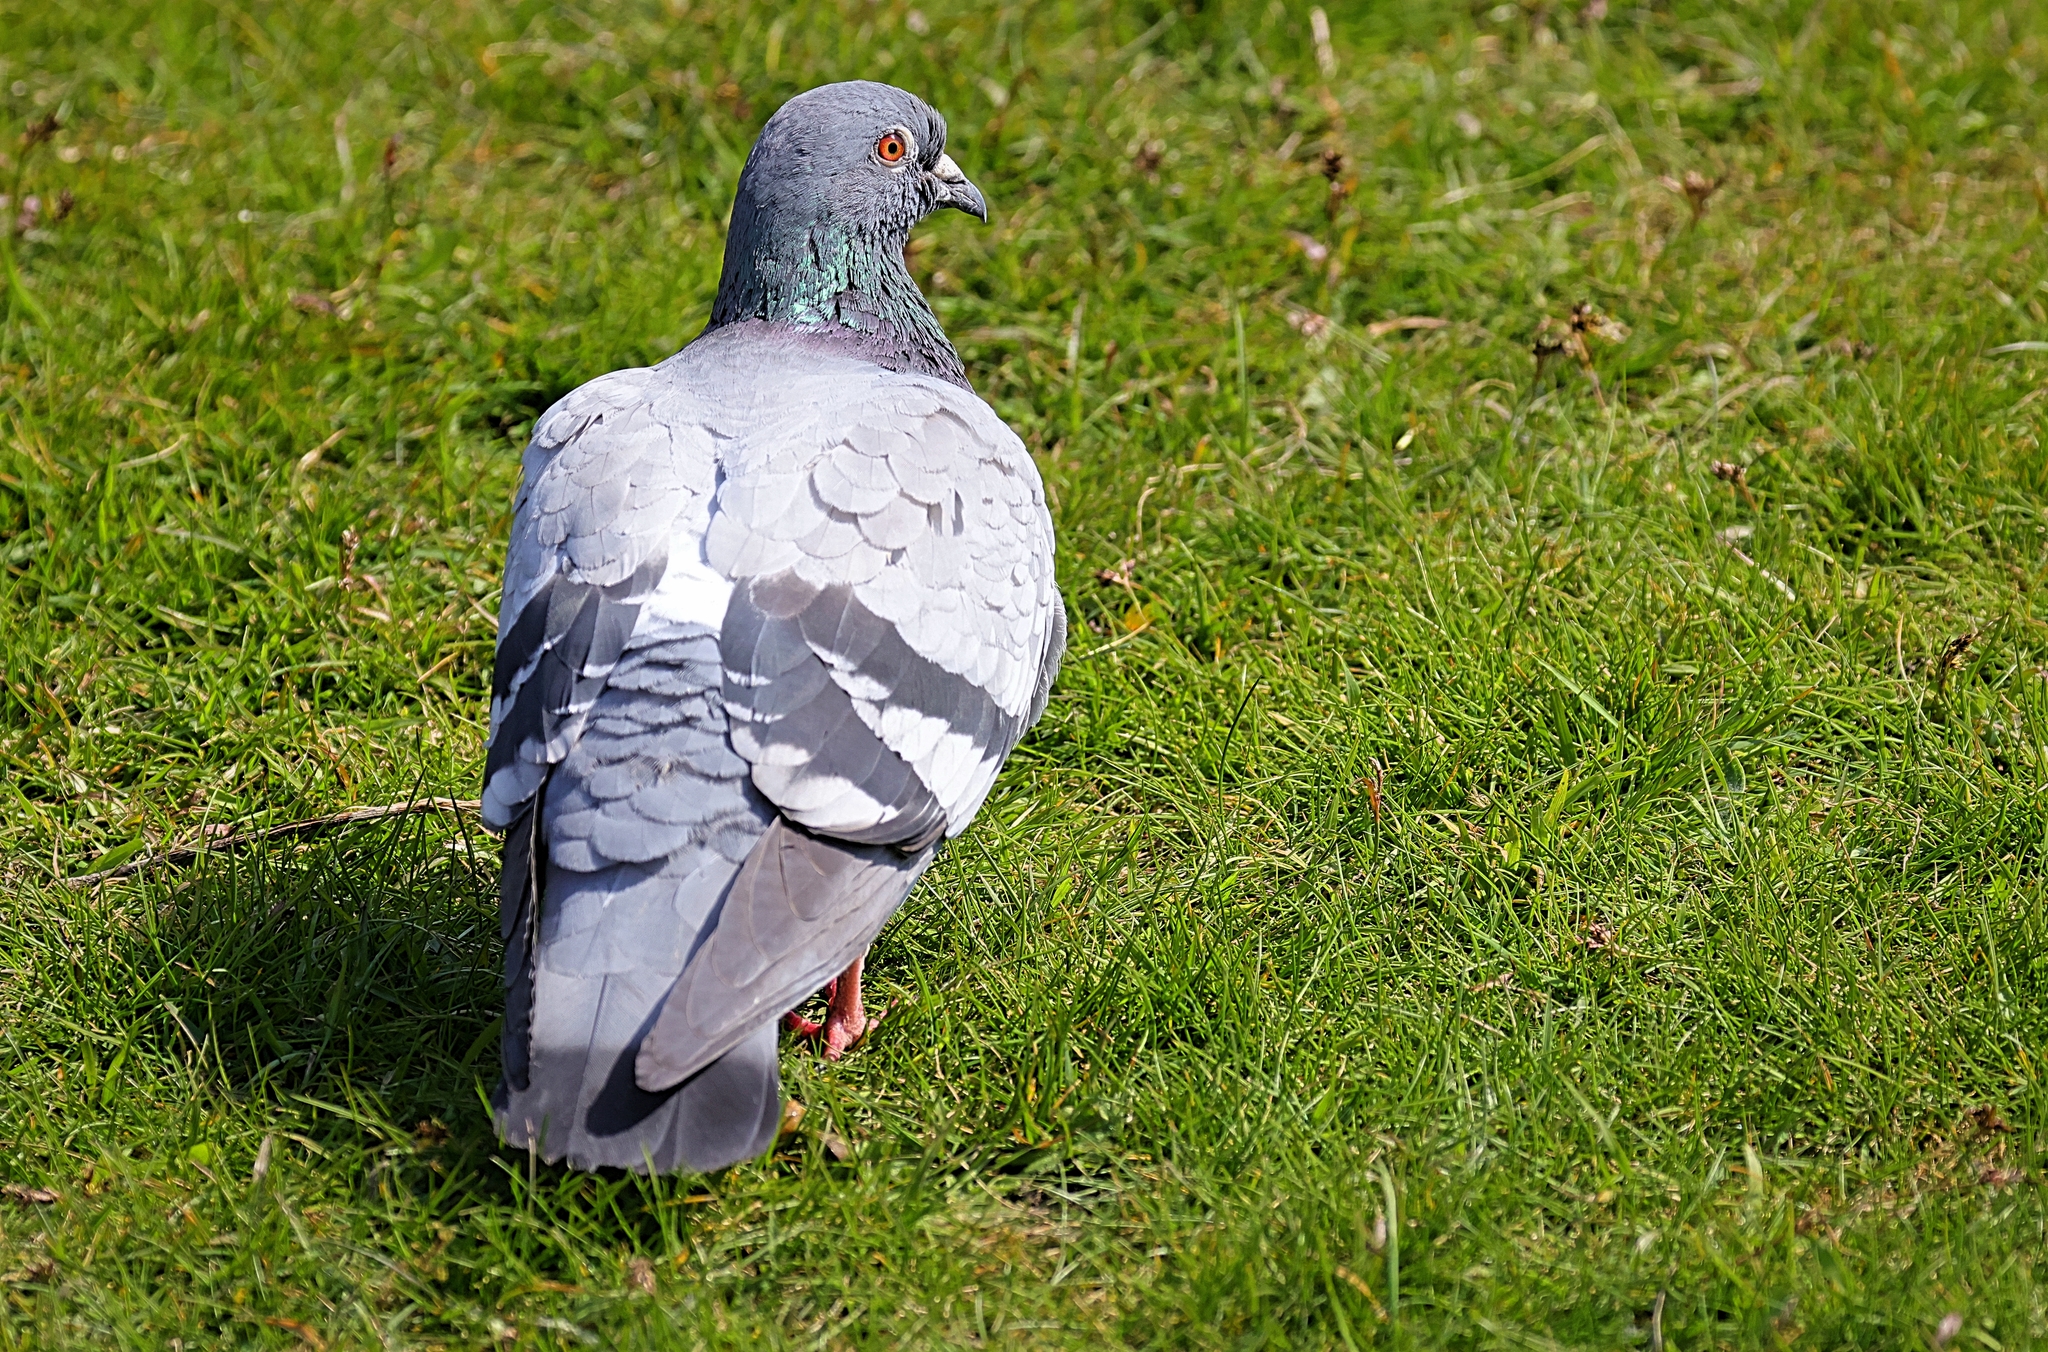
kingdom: Animalia
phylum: Chordata
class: Aves
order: Columbiformes
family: Columbidae
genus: Columba
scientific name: Columba livia
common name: Rock pigeon
